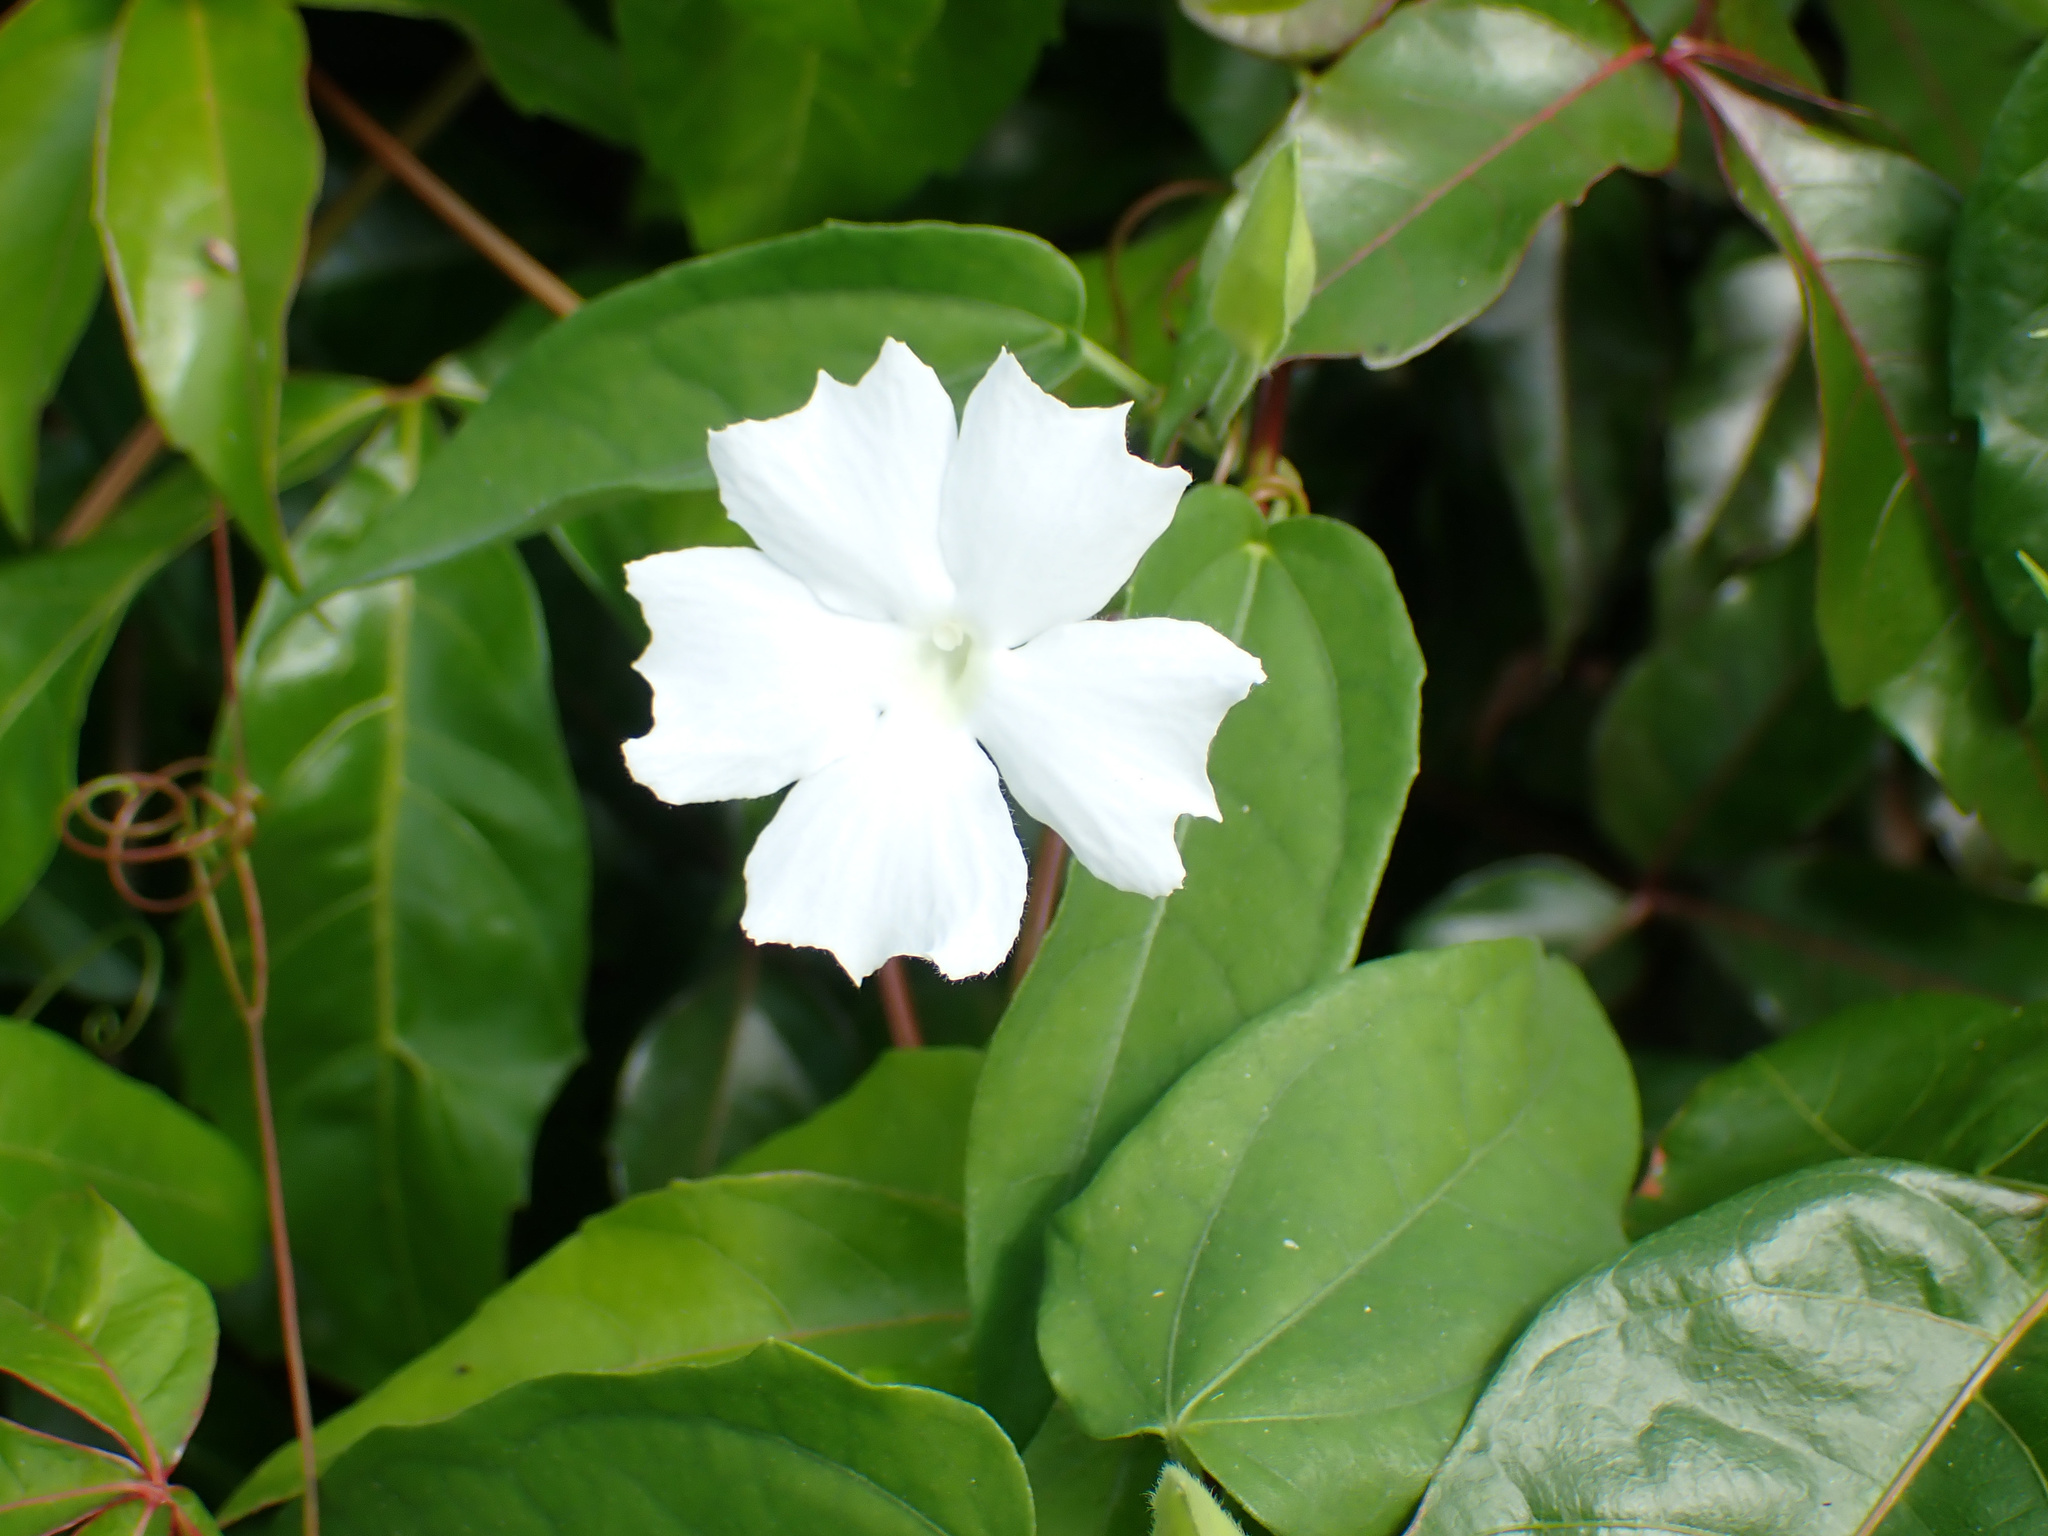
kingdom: Plantae
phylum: Tracheophyta
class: Magnoliopsida
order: Lamiales
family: Acanthaceae
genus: Thunbergia
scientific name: Thunbergia fragrans
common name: Whitelady
